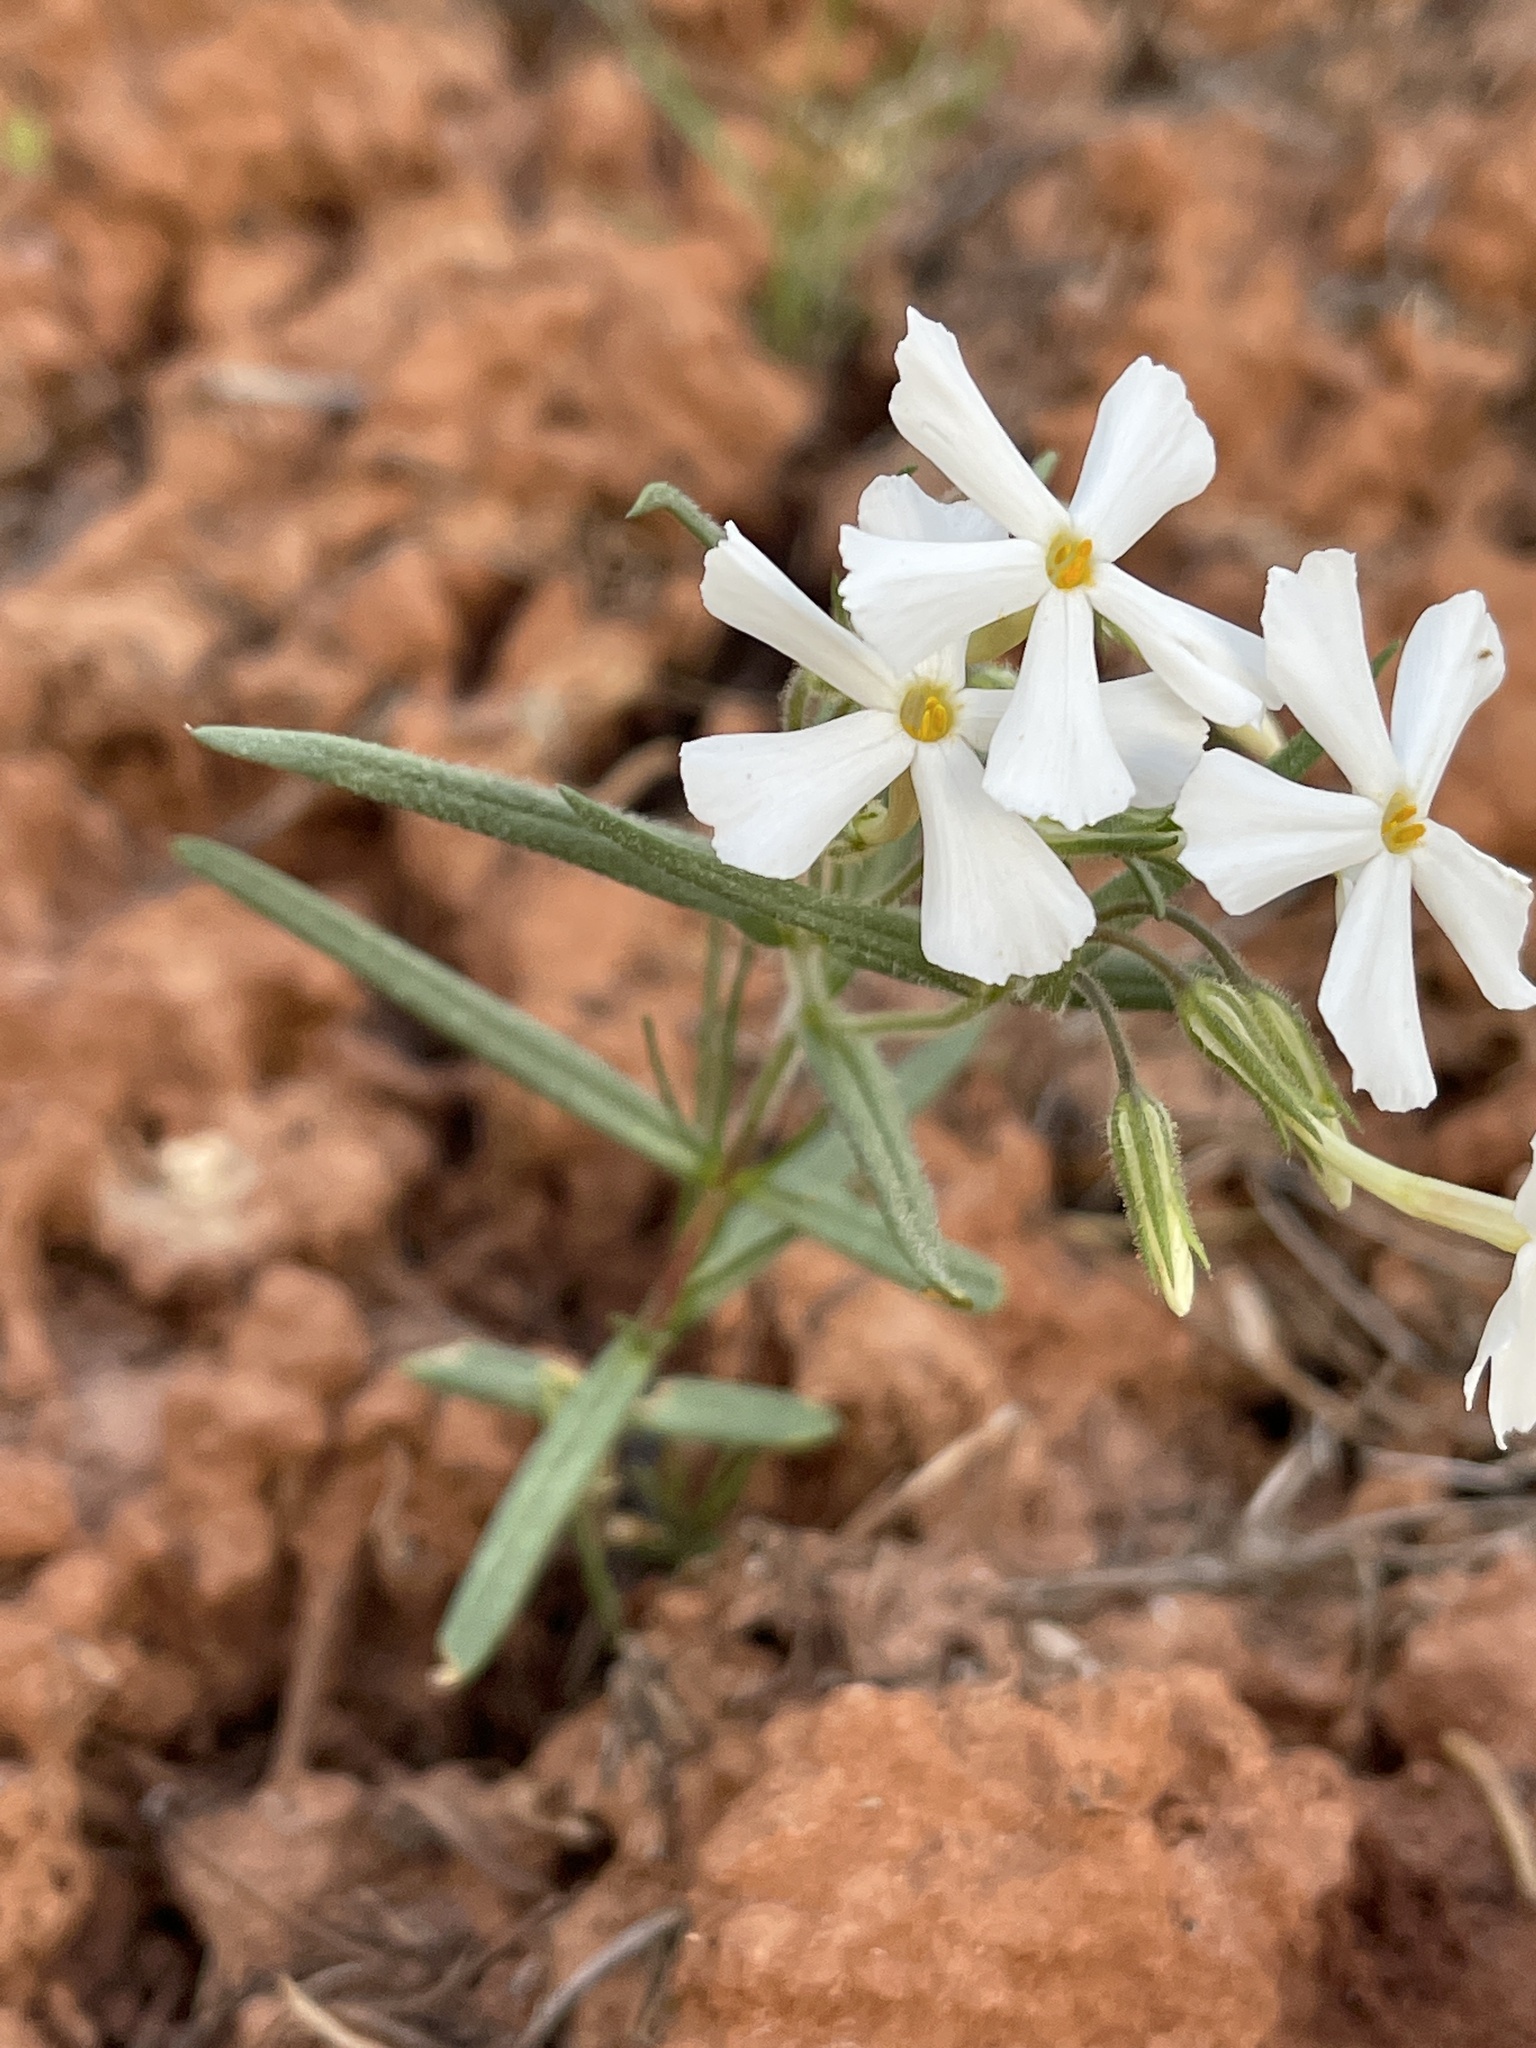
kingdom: Plantae
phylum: Tracheophyta
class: Magnoliopsida
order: Ericales
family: Polemoniaceae
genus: Phlox
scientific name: Phlox longifolia
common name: Longleaf phlox
